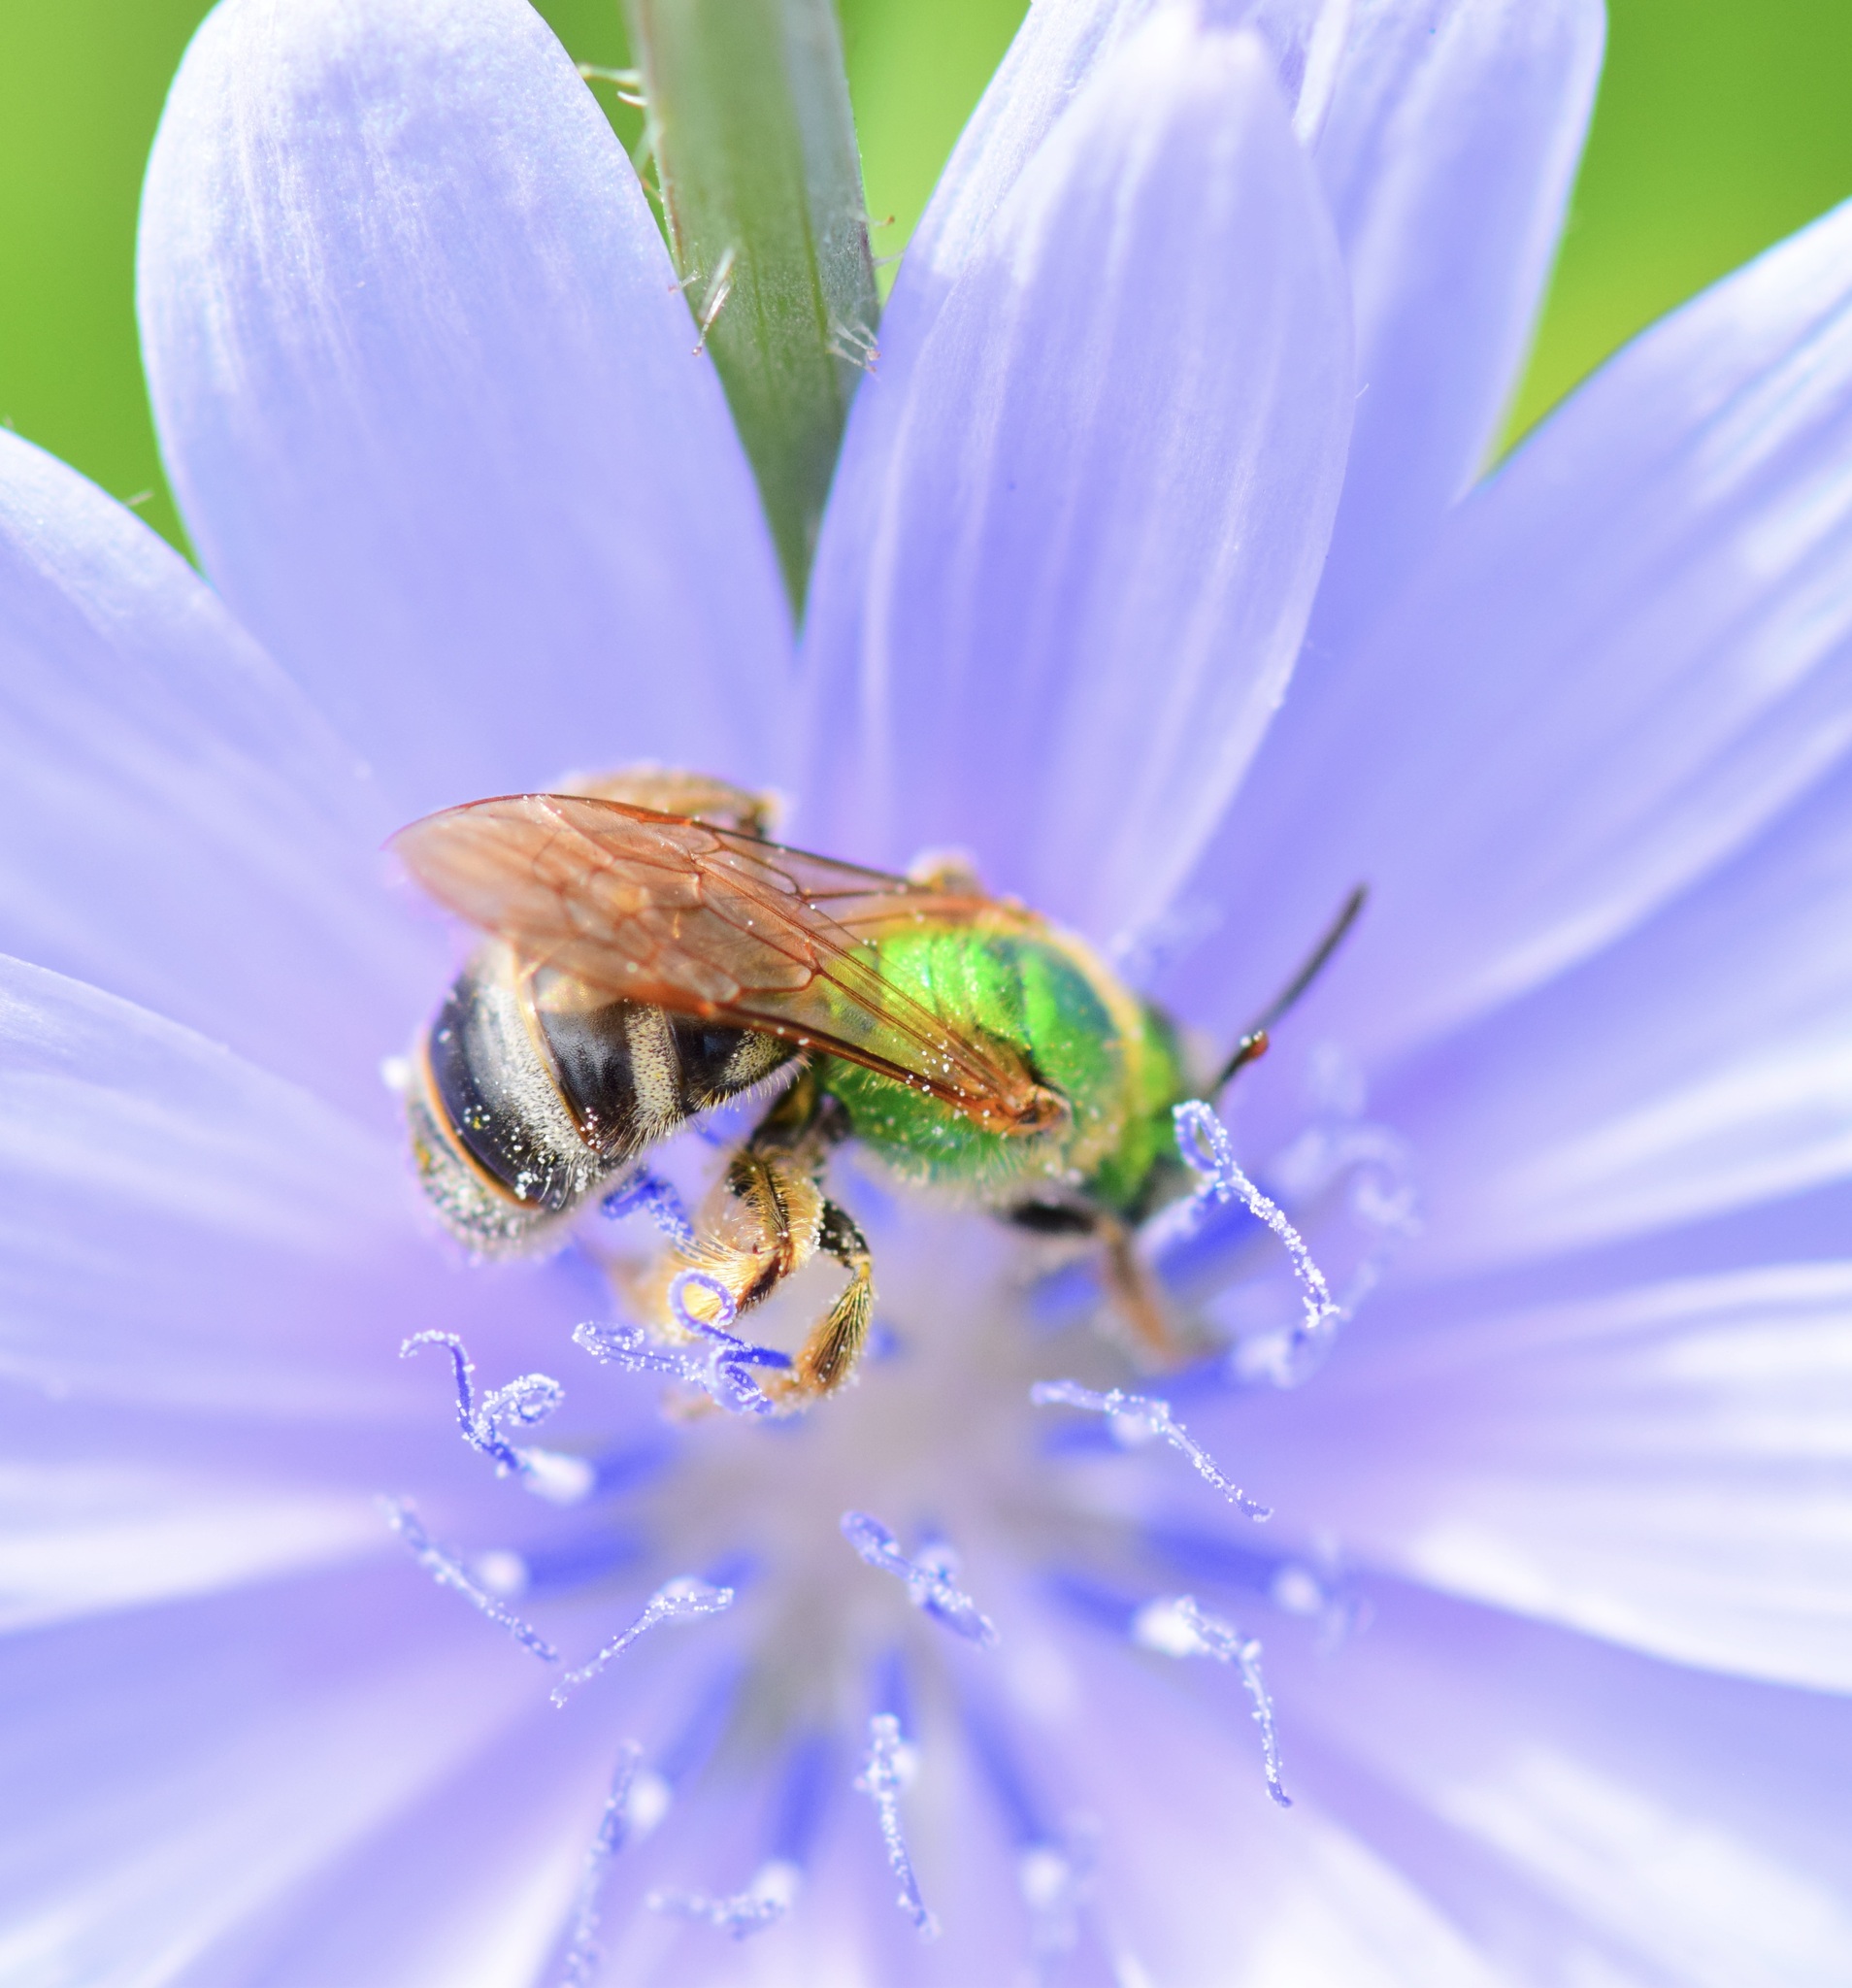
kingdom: Animalia
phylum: Arthropoda
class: Insecta
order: Hymenoptera
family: Halictidae
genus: Agapostemon
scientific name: Agapostemon virescens
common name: Bicolored striped sweat bee
